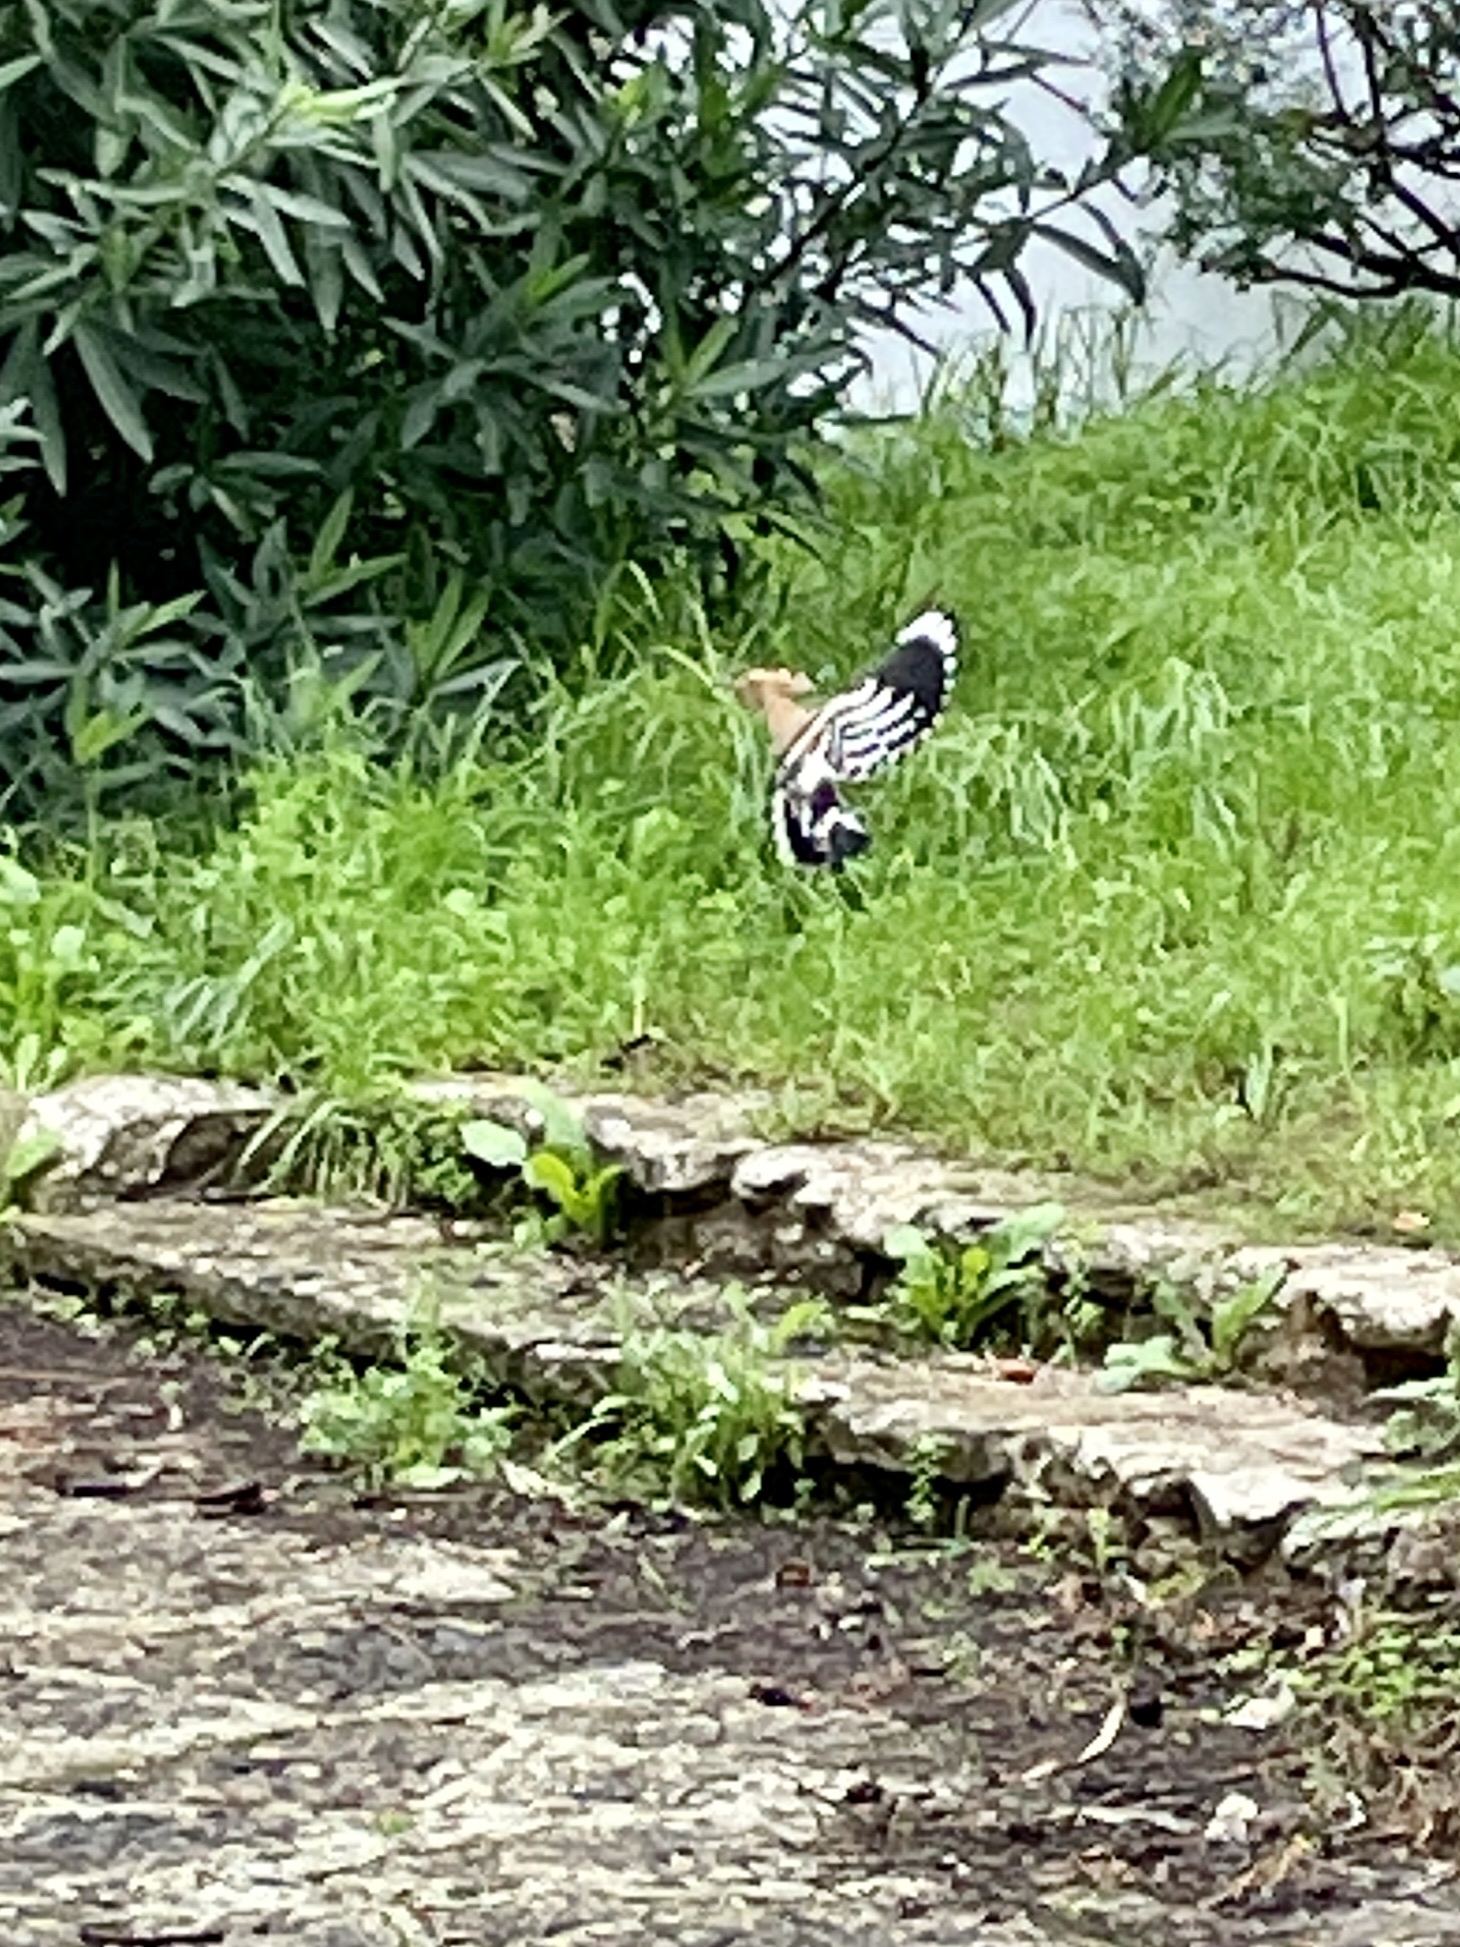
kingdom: Animalia
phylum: Chordata
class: Aves
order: Bucerotiformes
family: Upupidae
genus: Upupa
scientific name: Upupa epops
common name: Eurasian hoopoe
